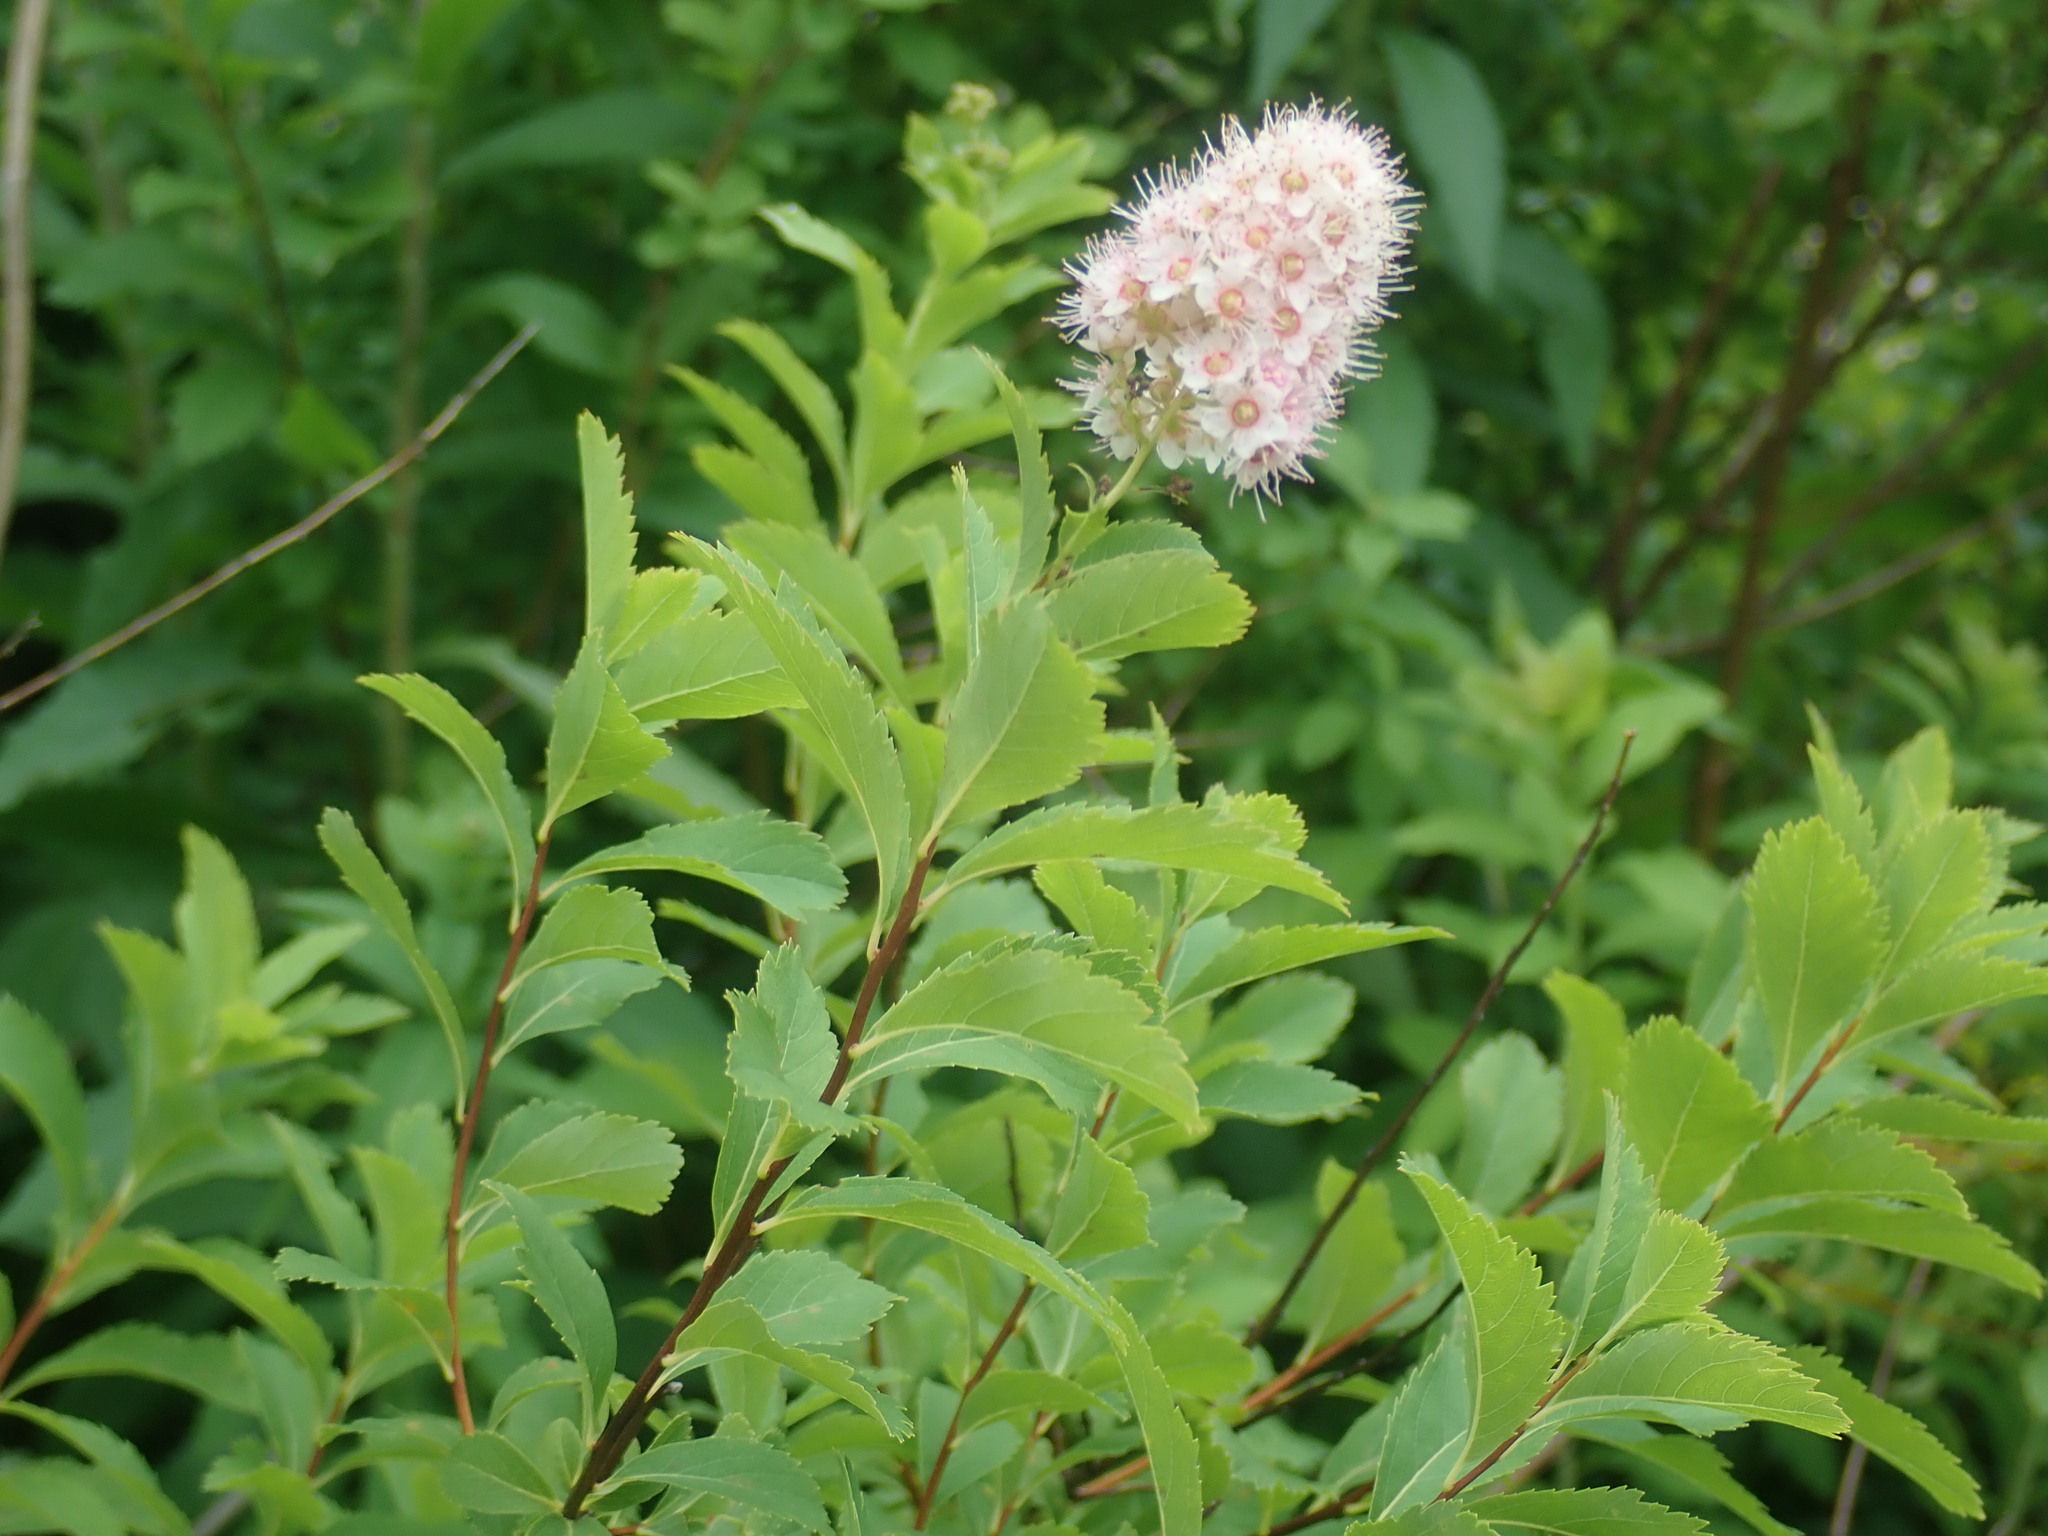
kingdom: Plantae
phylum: Tracheophyta
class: Magnoliopsida
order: Rosales
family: Rosaceae
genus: Spiraea
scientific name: Spiraea alba
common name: Pale bridewort
